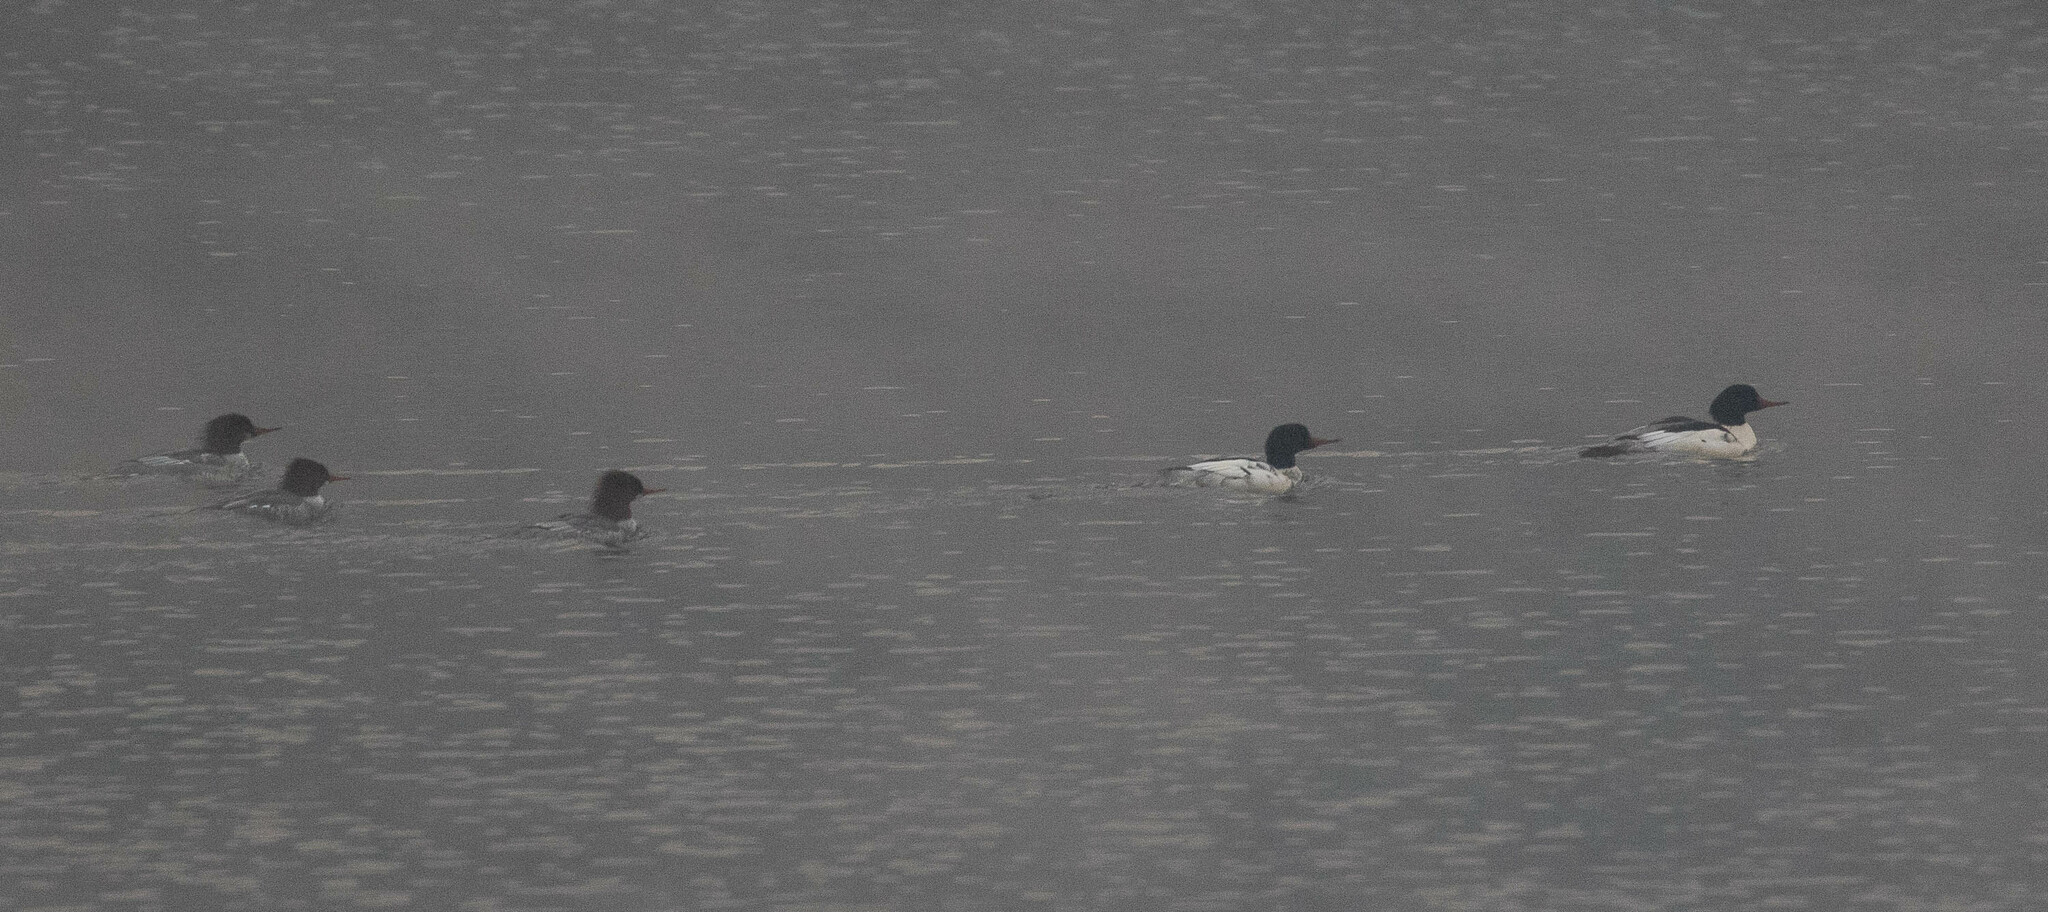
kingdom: Animalia
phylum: Chordata
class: Aves
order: Anseriformes
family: Anatidae
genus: Mergus
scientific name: Mergus merganser
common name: Common merganser
